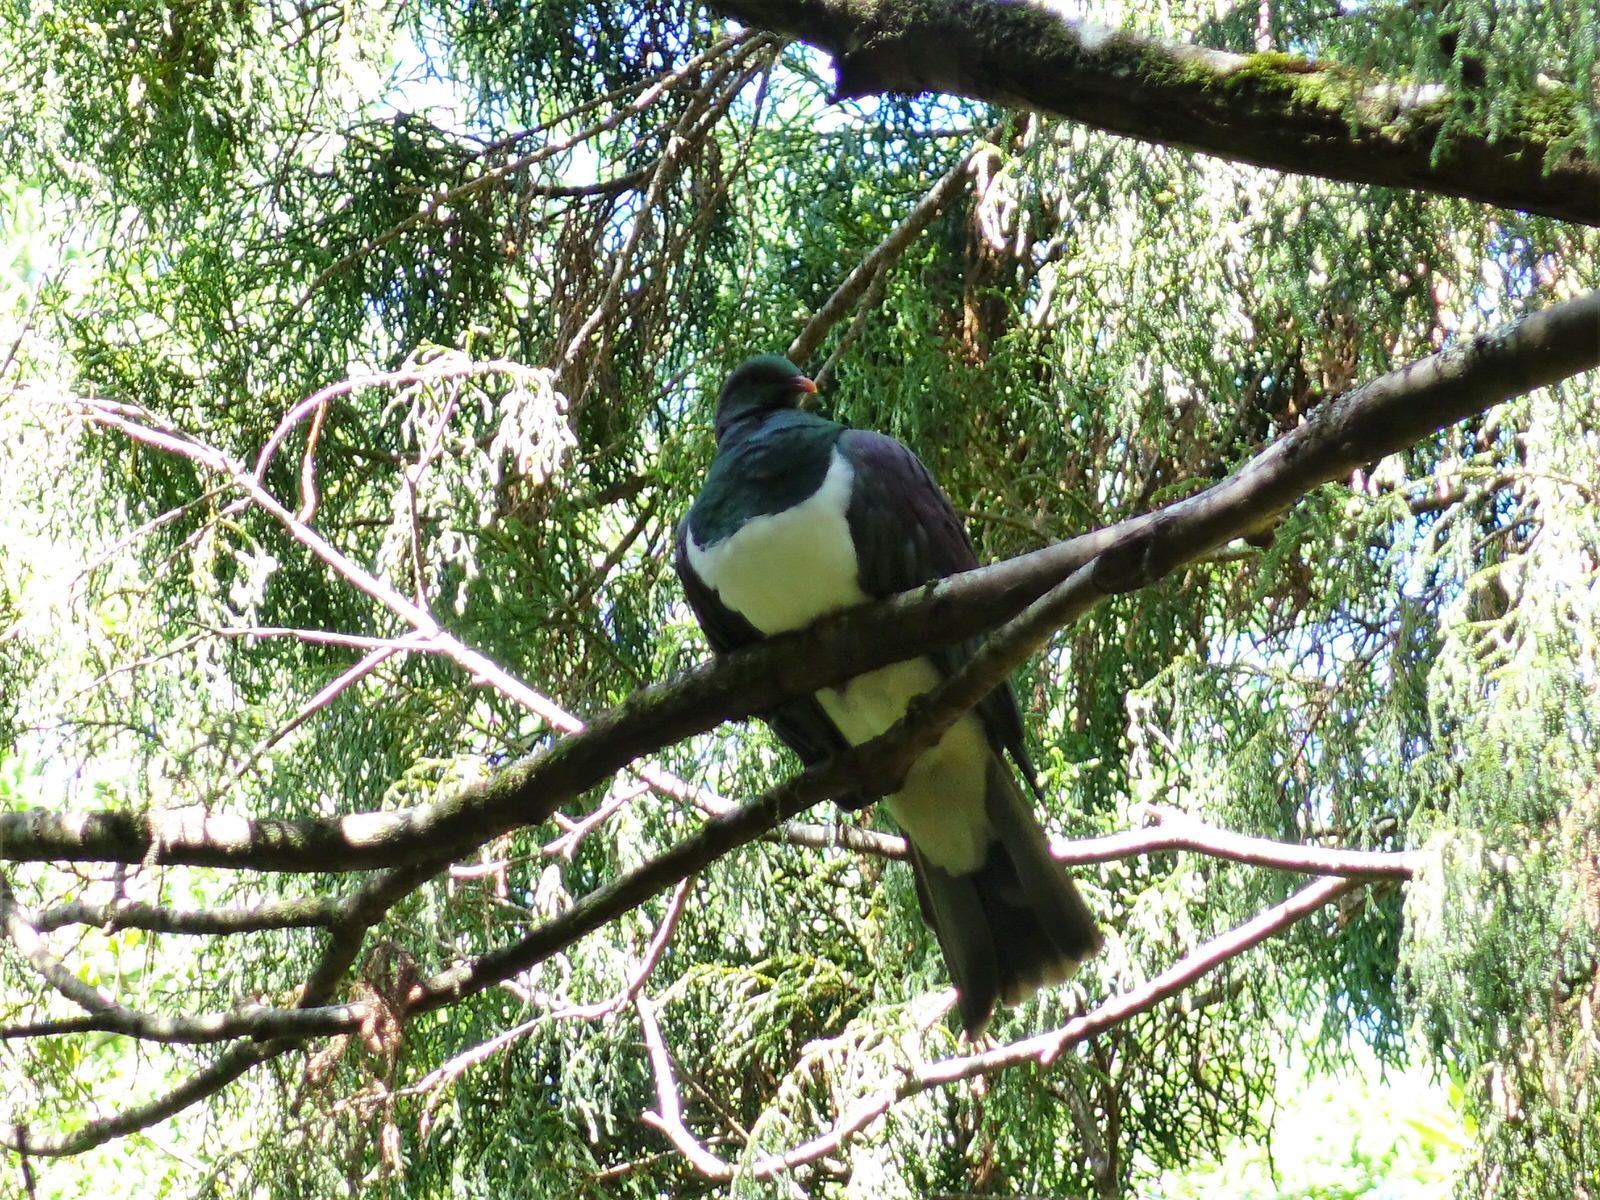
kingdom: Animalia
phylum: Chordata
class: Aves
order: Columbiformes
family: Columbidae
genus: Hemiphaga
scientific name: Hemiphaga novaeseelandiae
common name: New zealand pigeon
